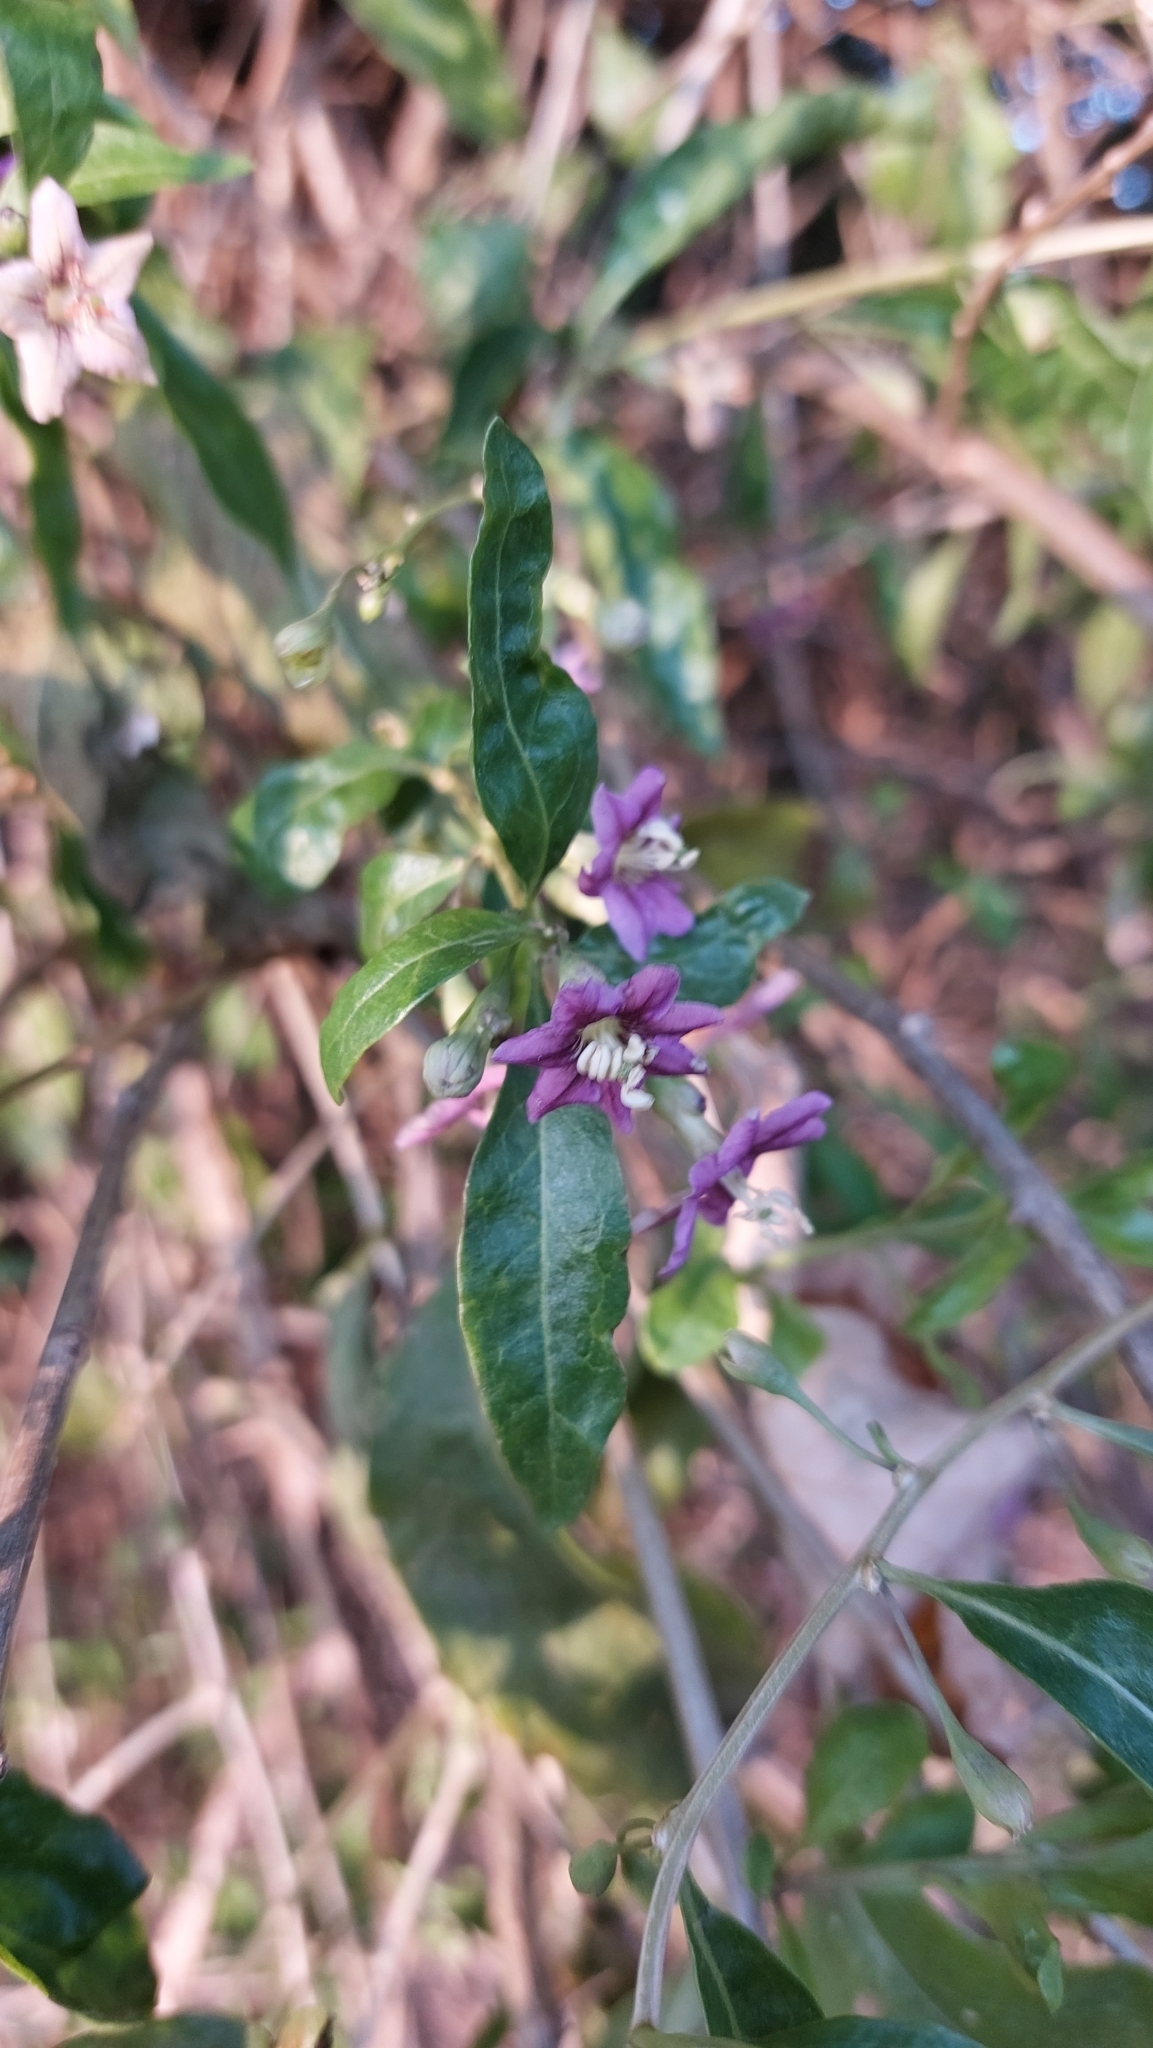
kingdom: Plantae
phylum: Tracheophyta
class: Magnoliopsida
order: Solanales
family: Solanaceae
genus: Lycium
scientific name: Lycium barbarum
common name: Duke of argyll's teaplant
